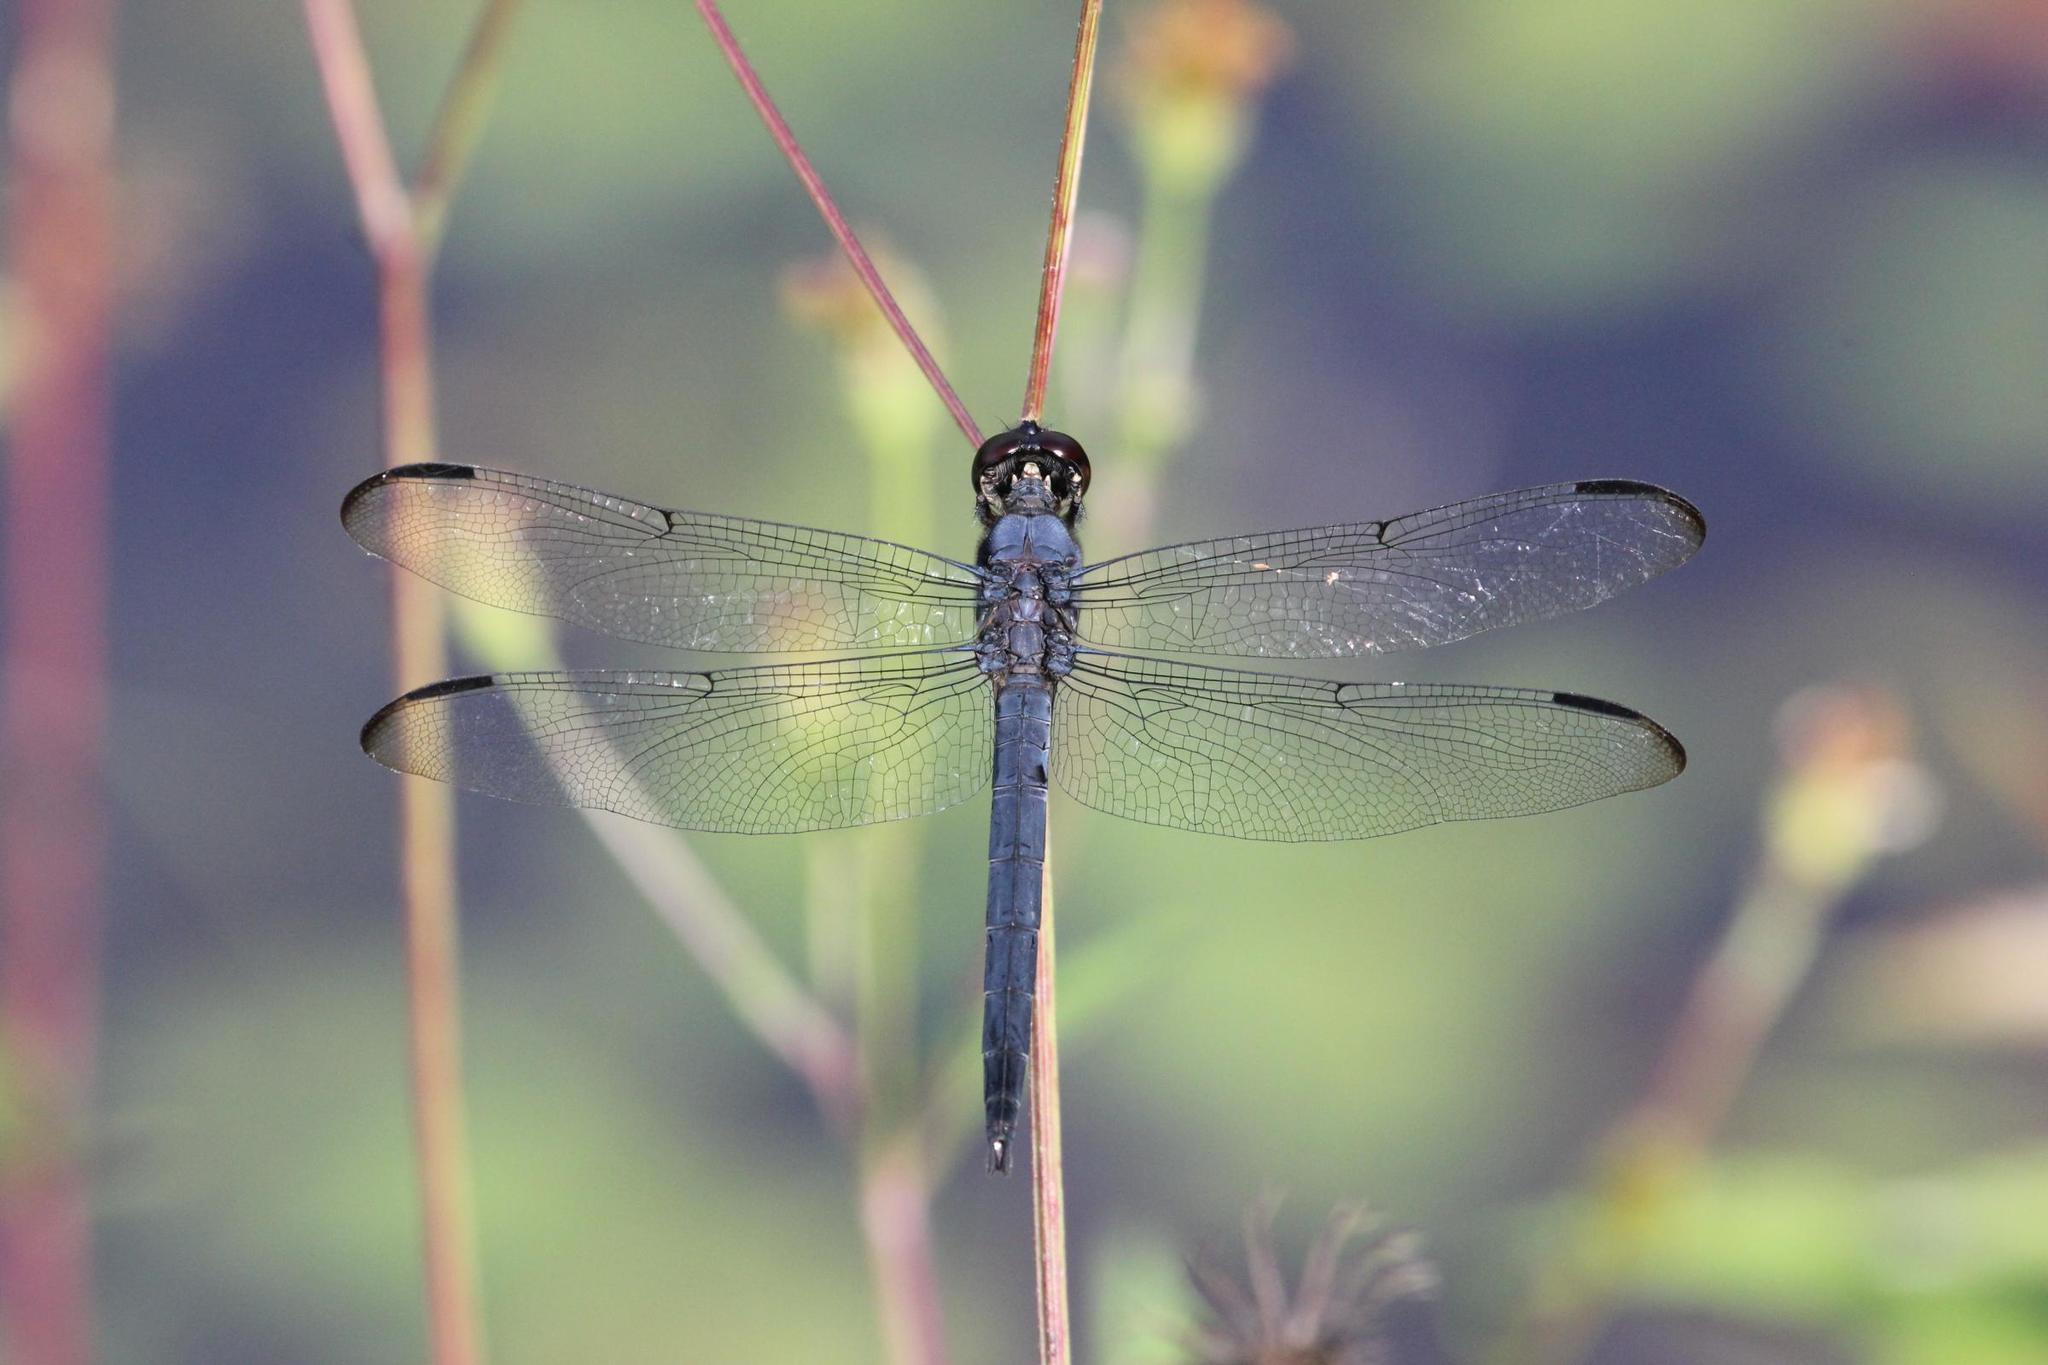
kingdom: Animalia
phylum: Arthropoda
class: Insecta
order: Odonata
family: Libellulidae
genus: Libellula
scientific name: Libellula incesta
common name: Slaty skimmer
